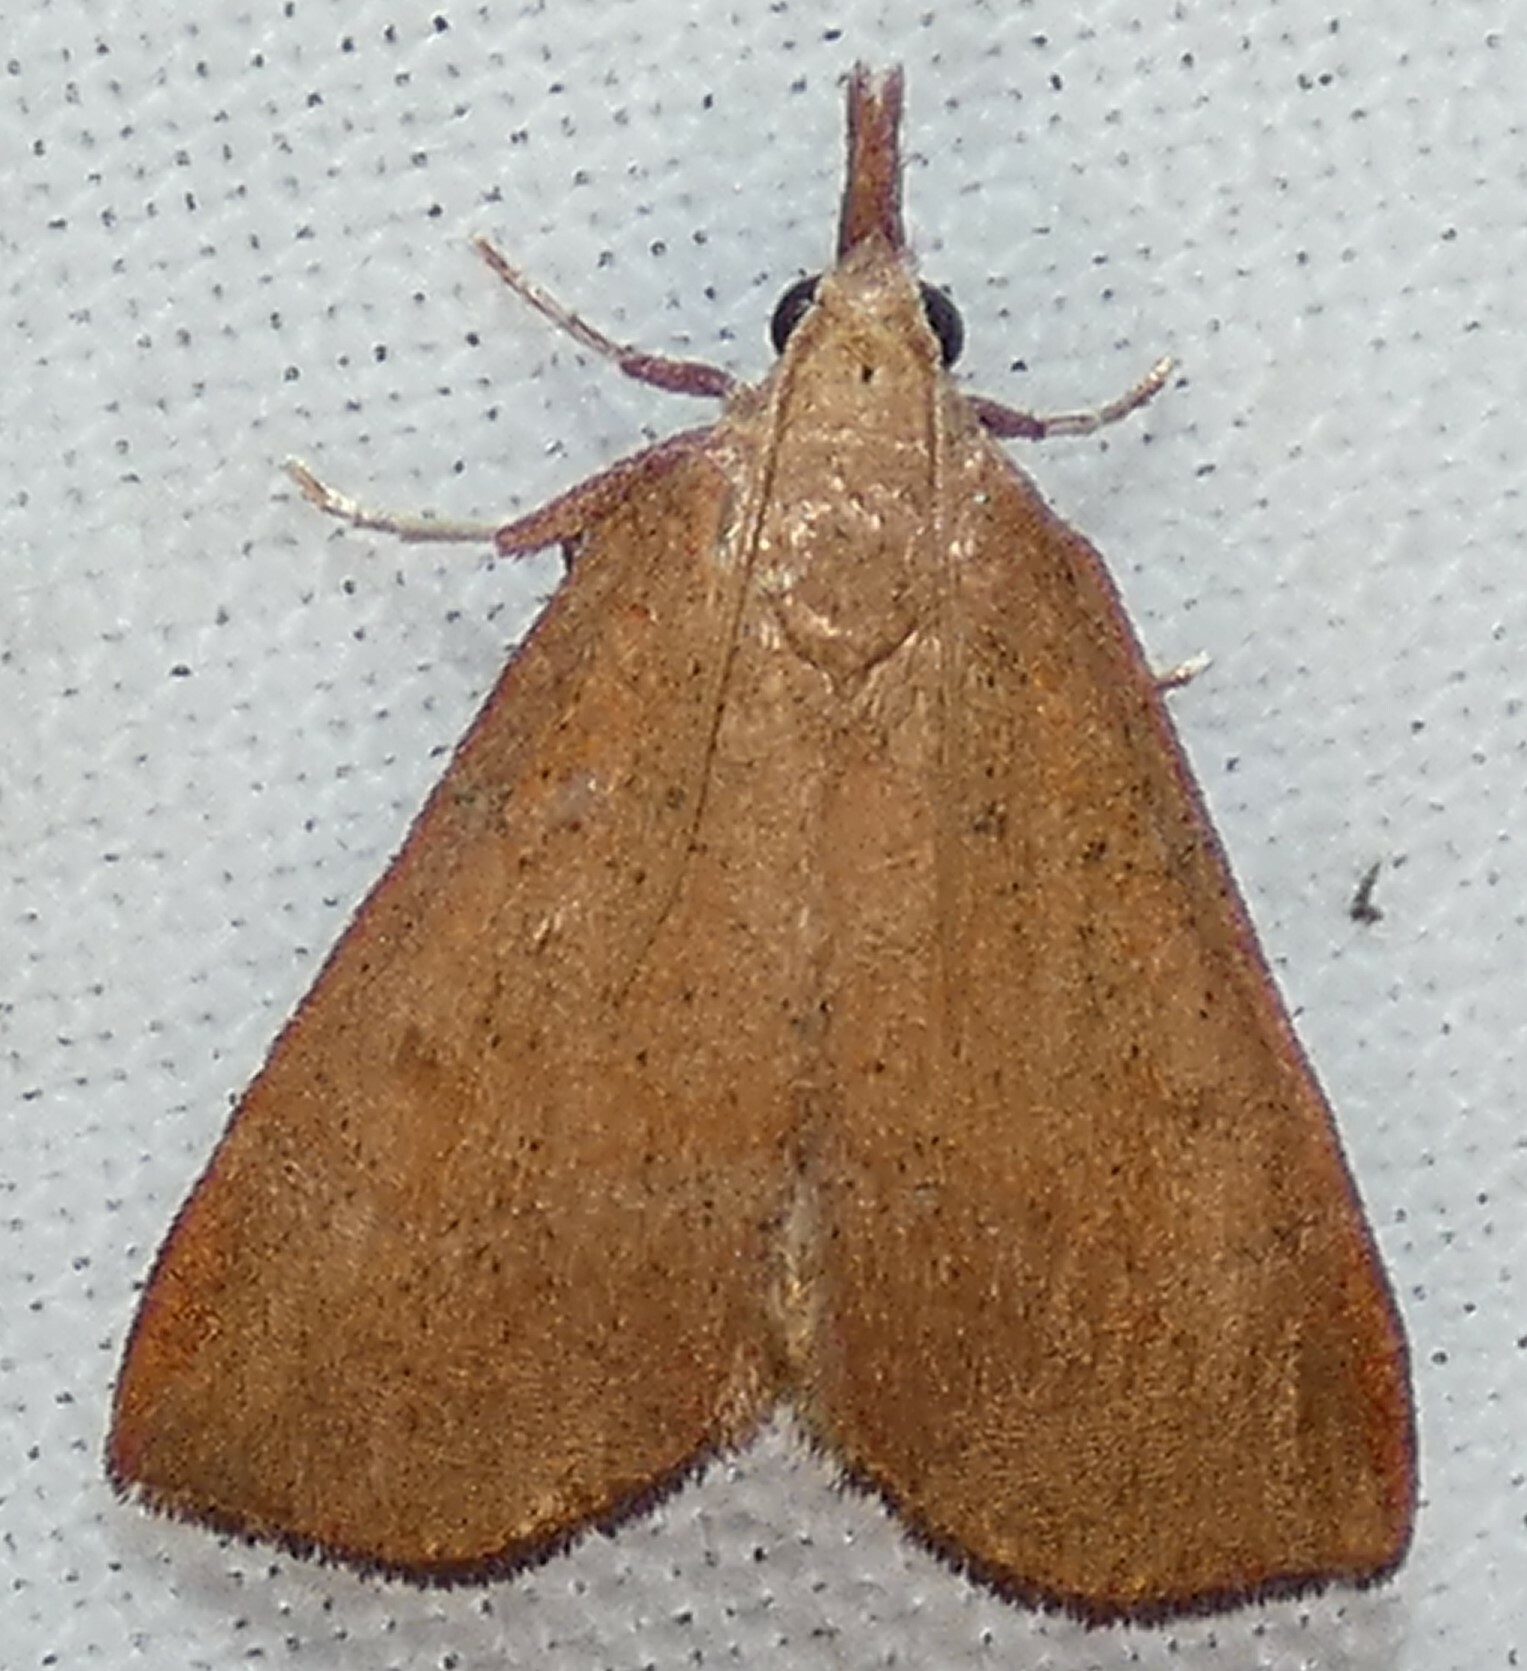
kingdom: Animalia
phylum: Arthropoda
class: Insecta
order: Lepidoptera
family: Pyralidae
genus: Lepidomys
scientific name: Lepidomys irrenosa
